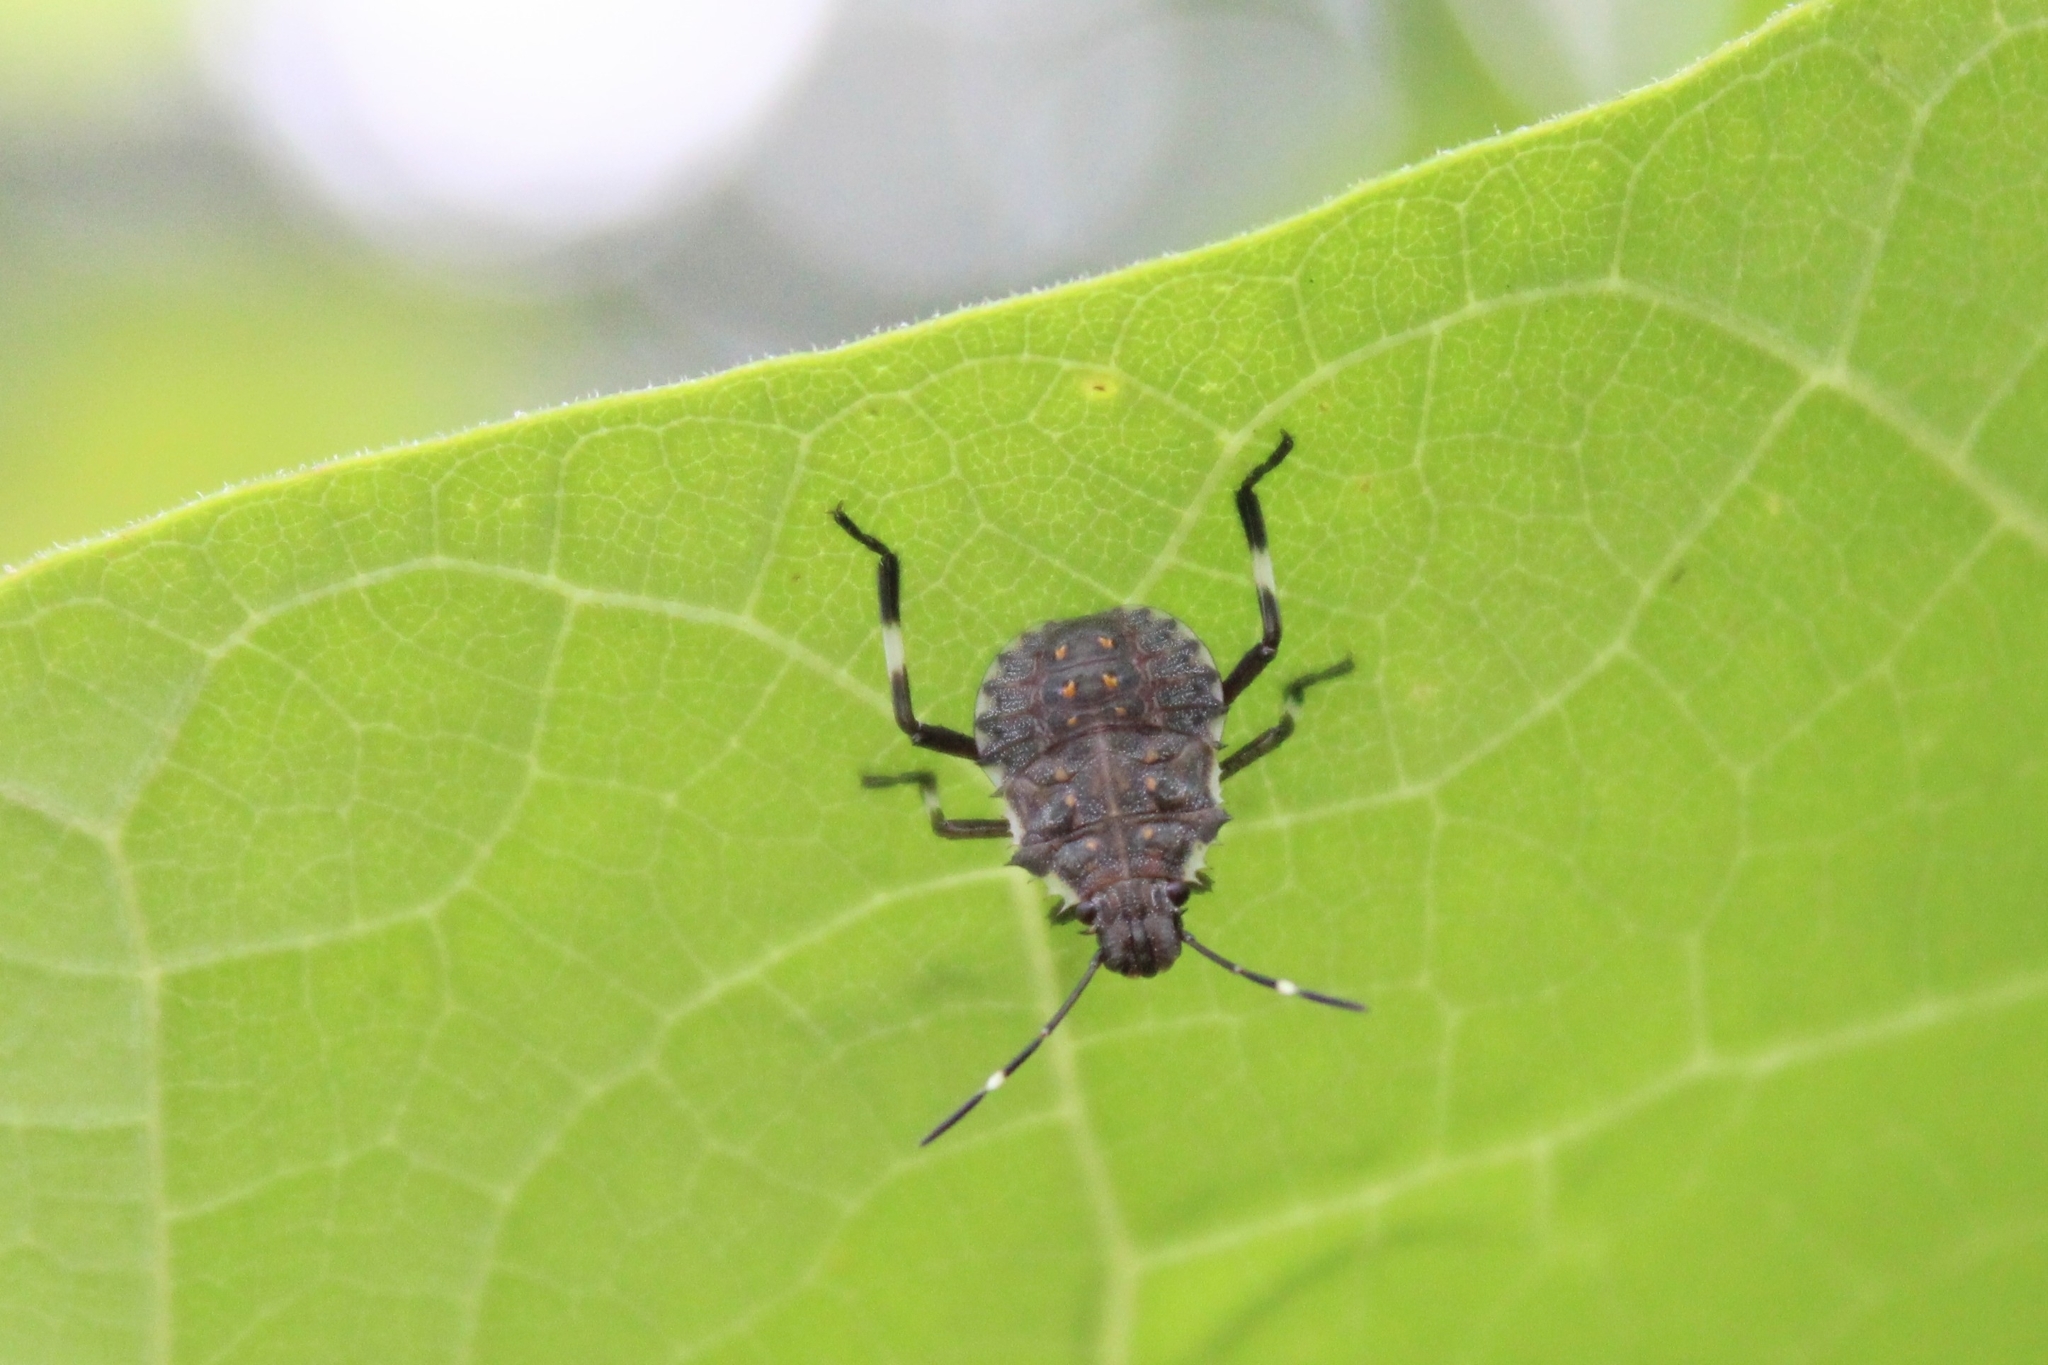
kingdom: Animalia
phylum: Arthropoda
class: Insecta
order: Hemiptera
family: Pentatomidae
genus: Halyomorpha
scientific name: Halyomorpha halys
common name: Brown marmorated stink bug
